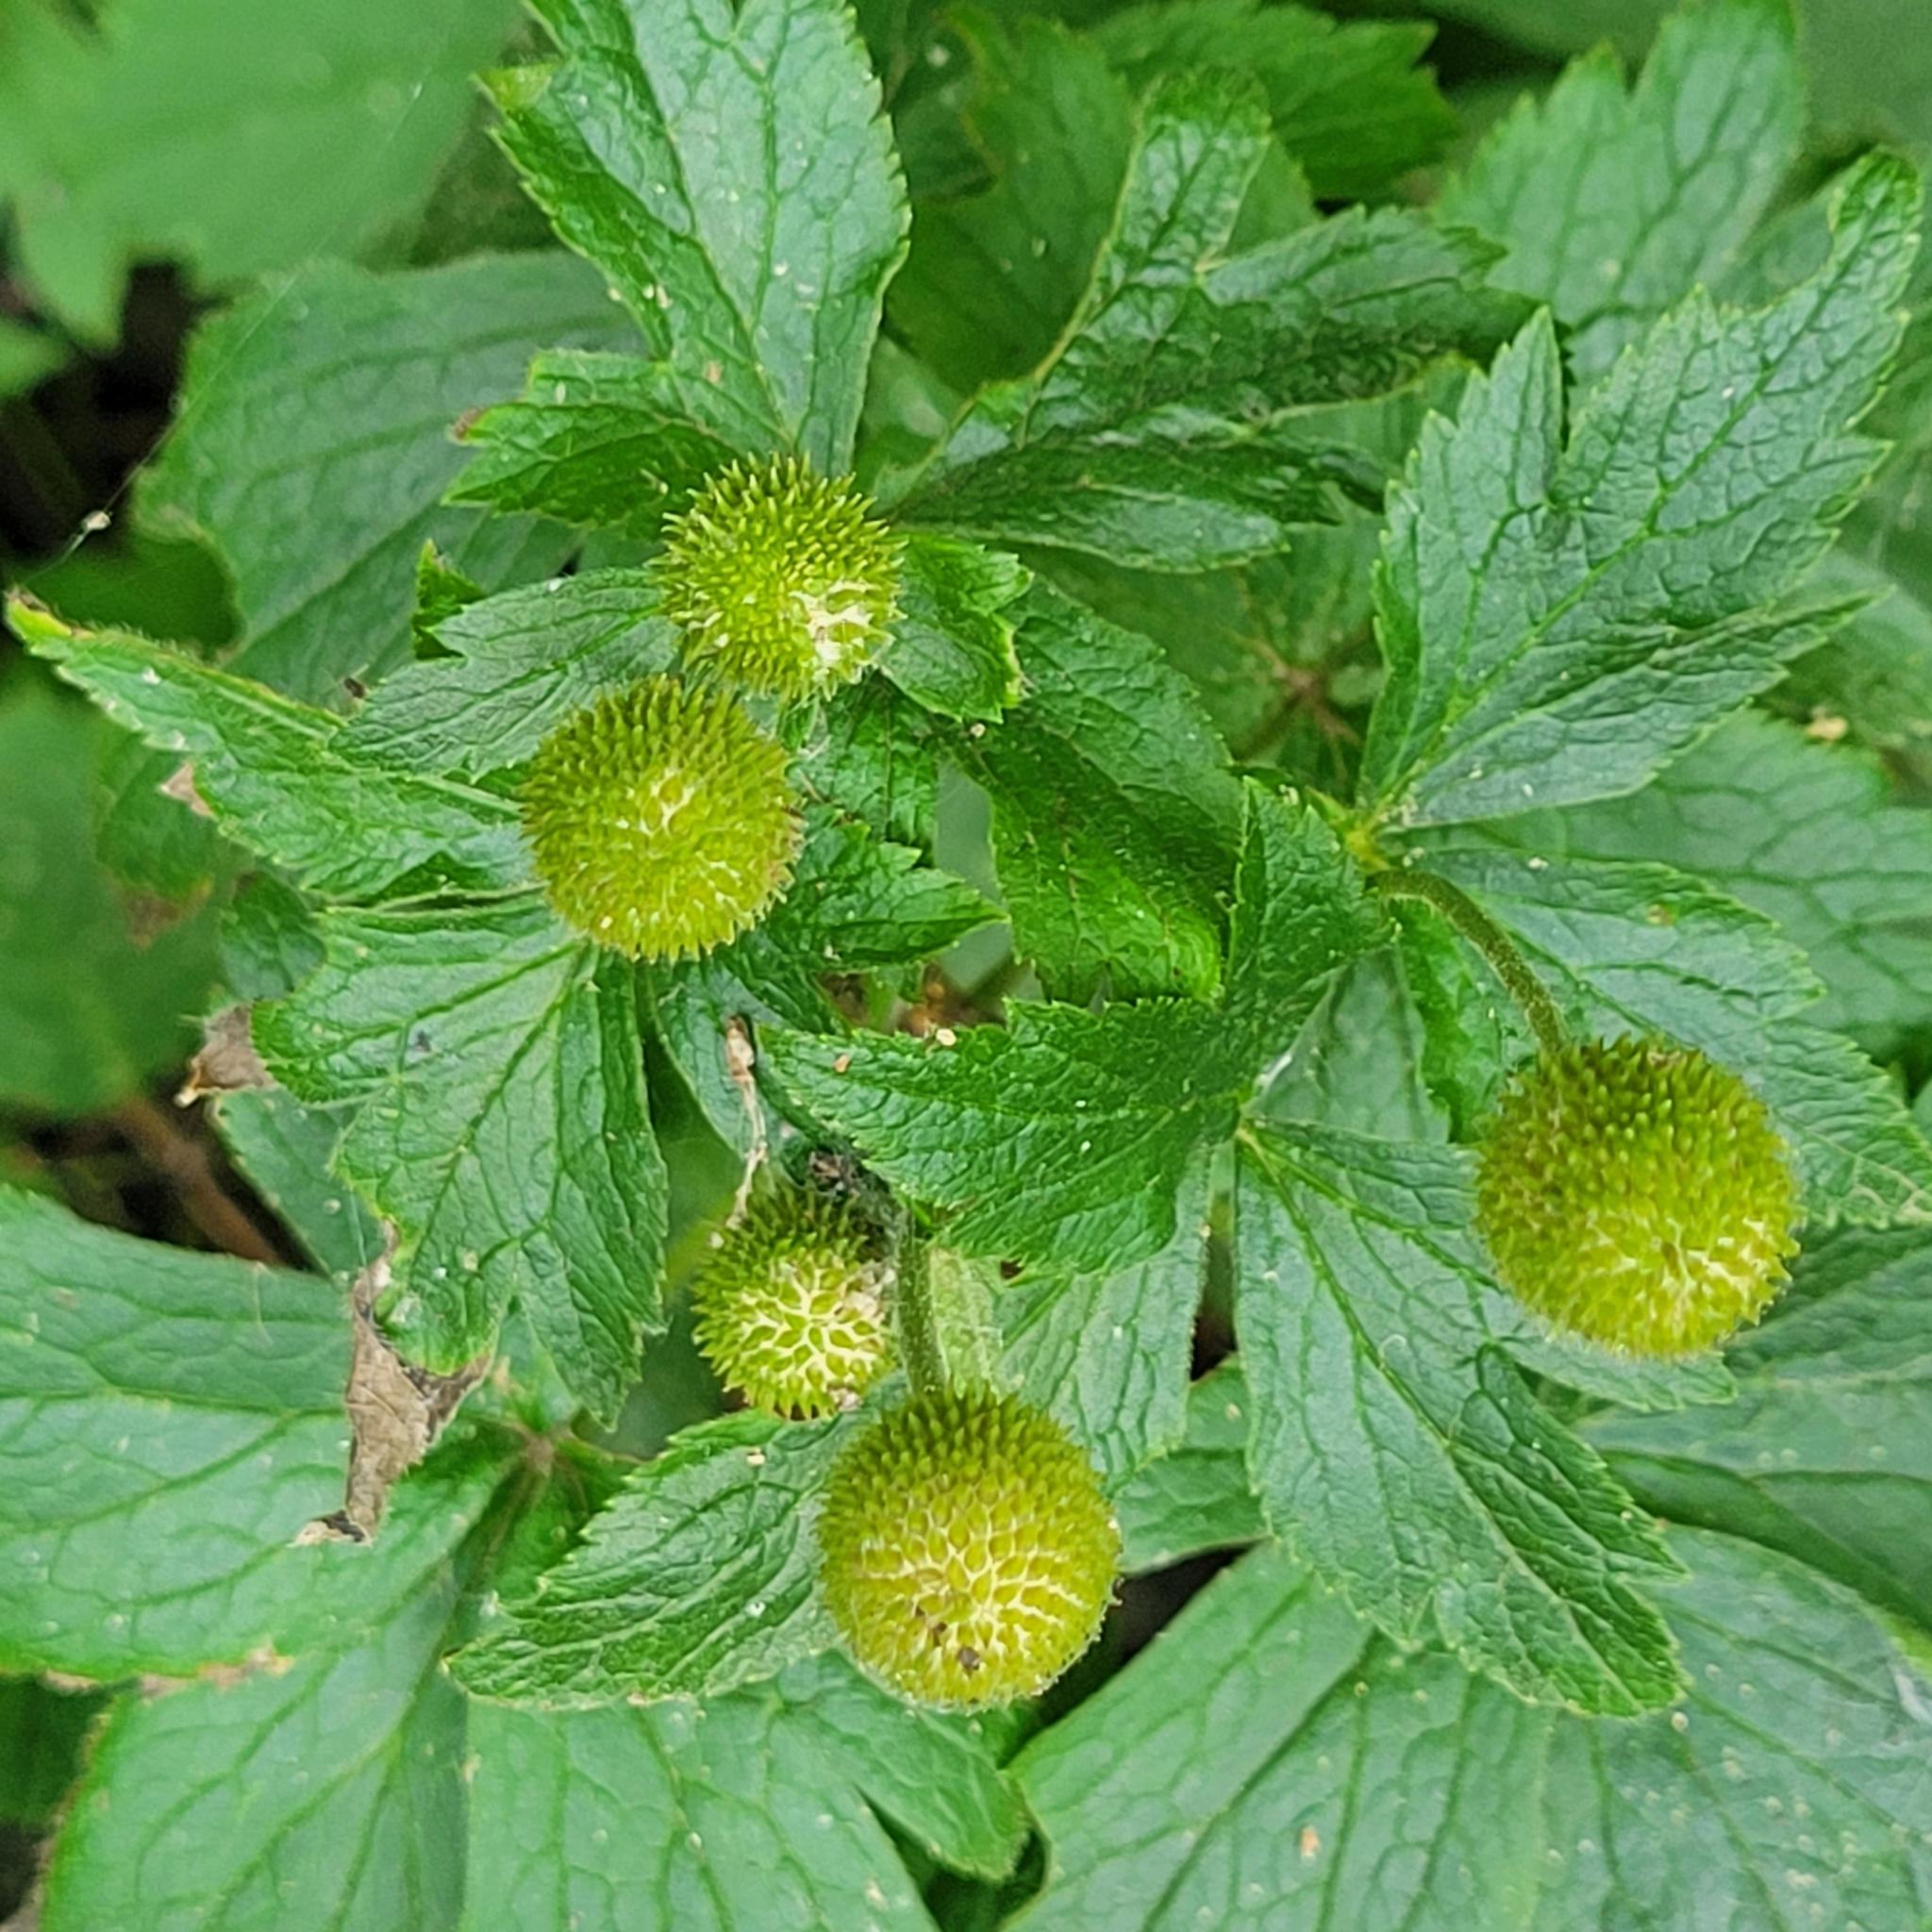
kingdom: Plantae
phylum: Tracheophyta
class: Magnoliopsida
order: Ranunculales
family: Ranunculaceae
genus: Anemone
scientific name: Anemone virginiana
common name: Tall anemone
